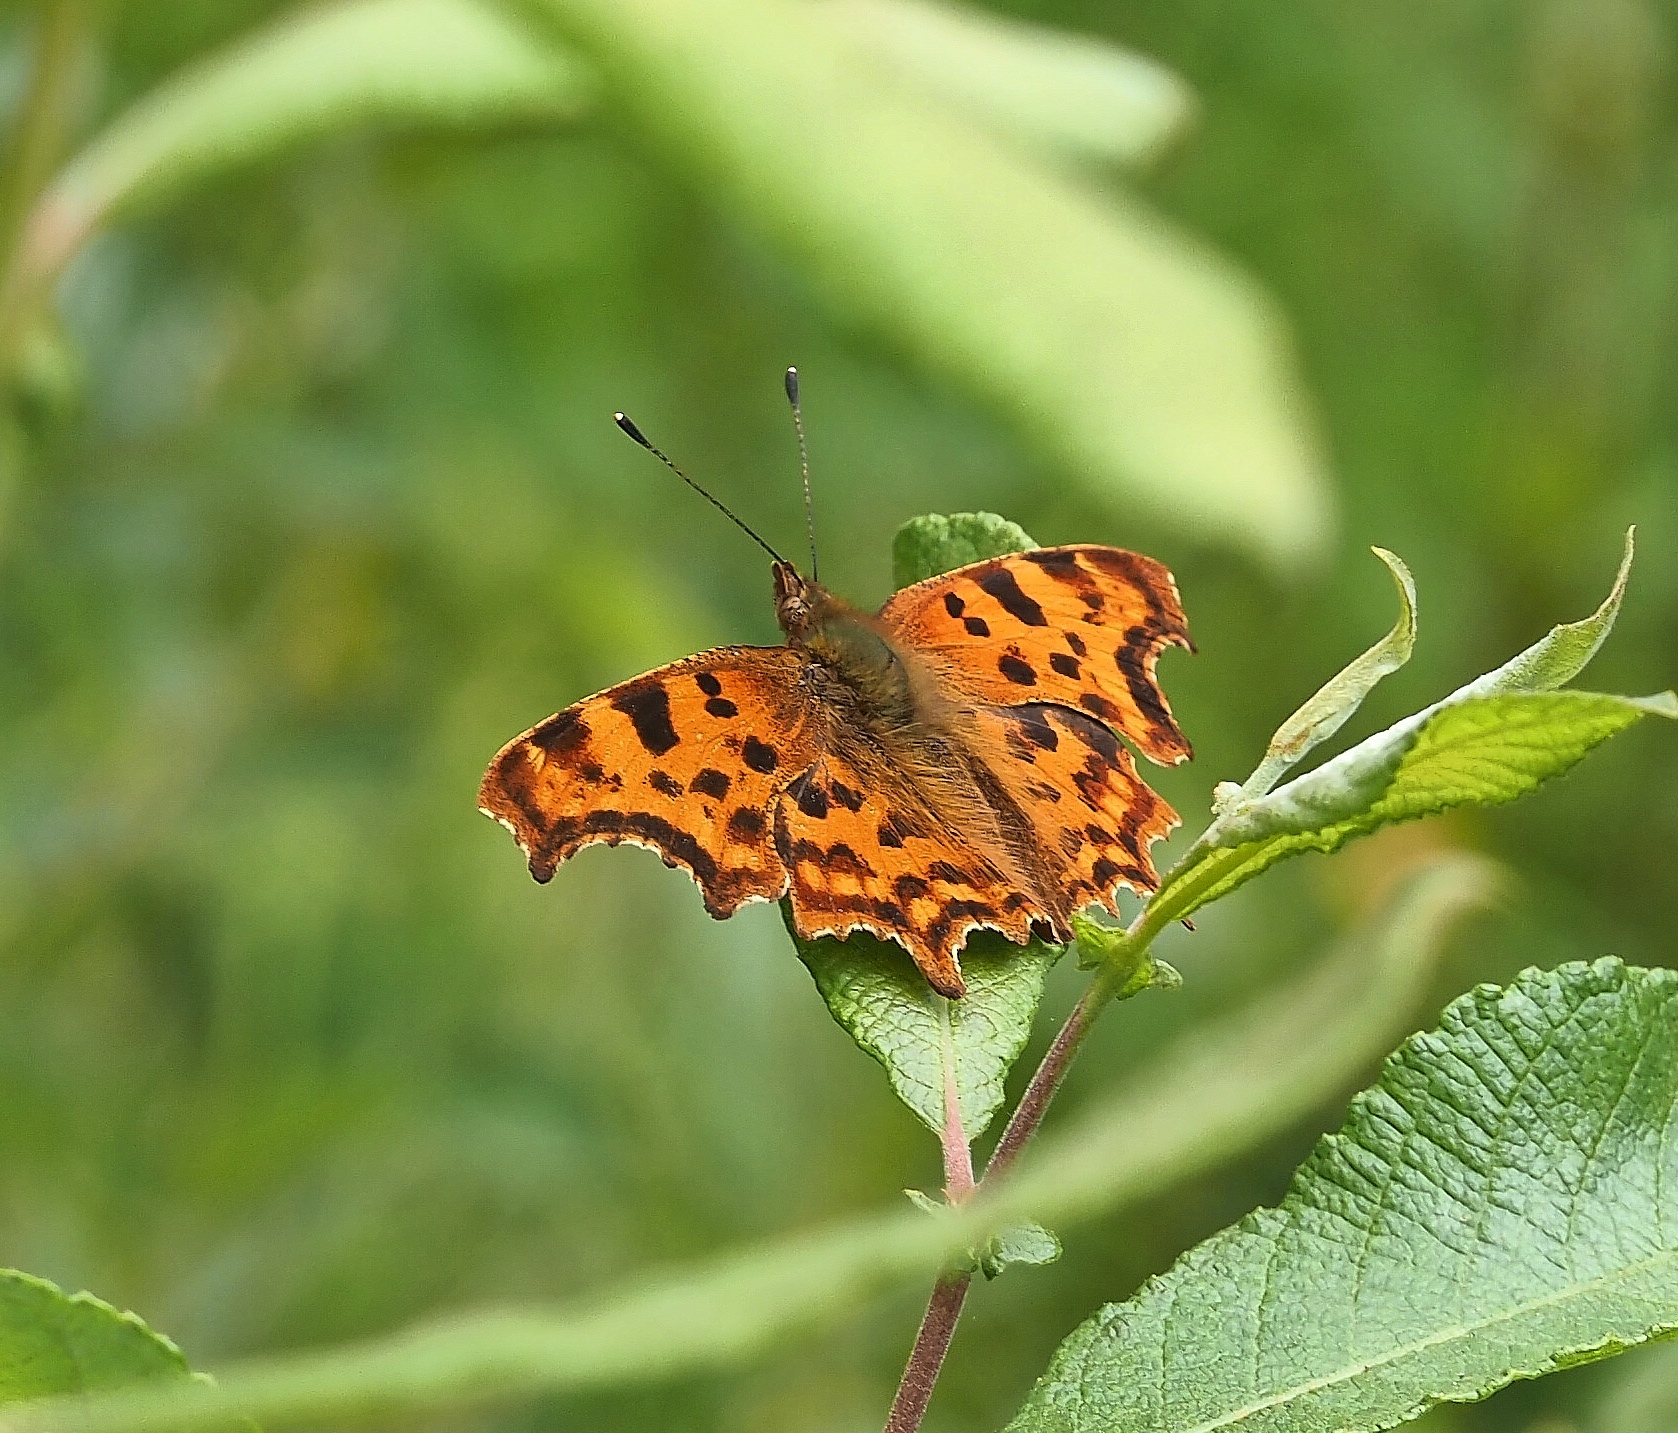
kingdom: Animalia
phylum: Arthropoda
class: Insecta
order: Lepidoptera
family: Nymphalidae
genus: Polygonia
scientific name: Polygonia c-album
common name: Comma
